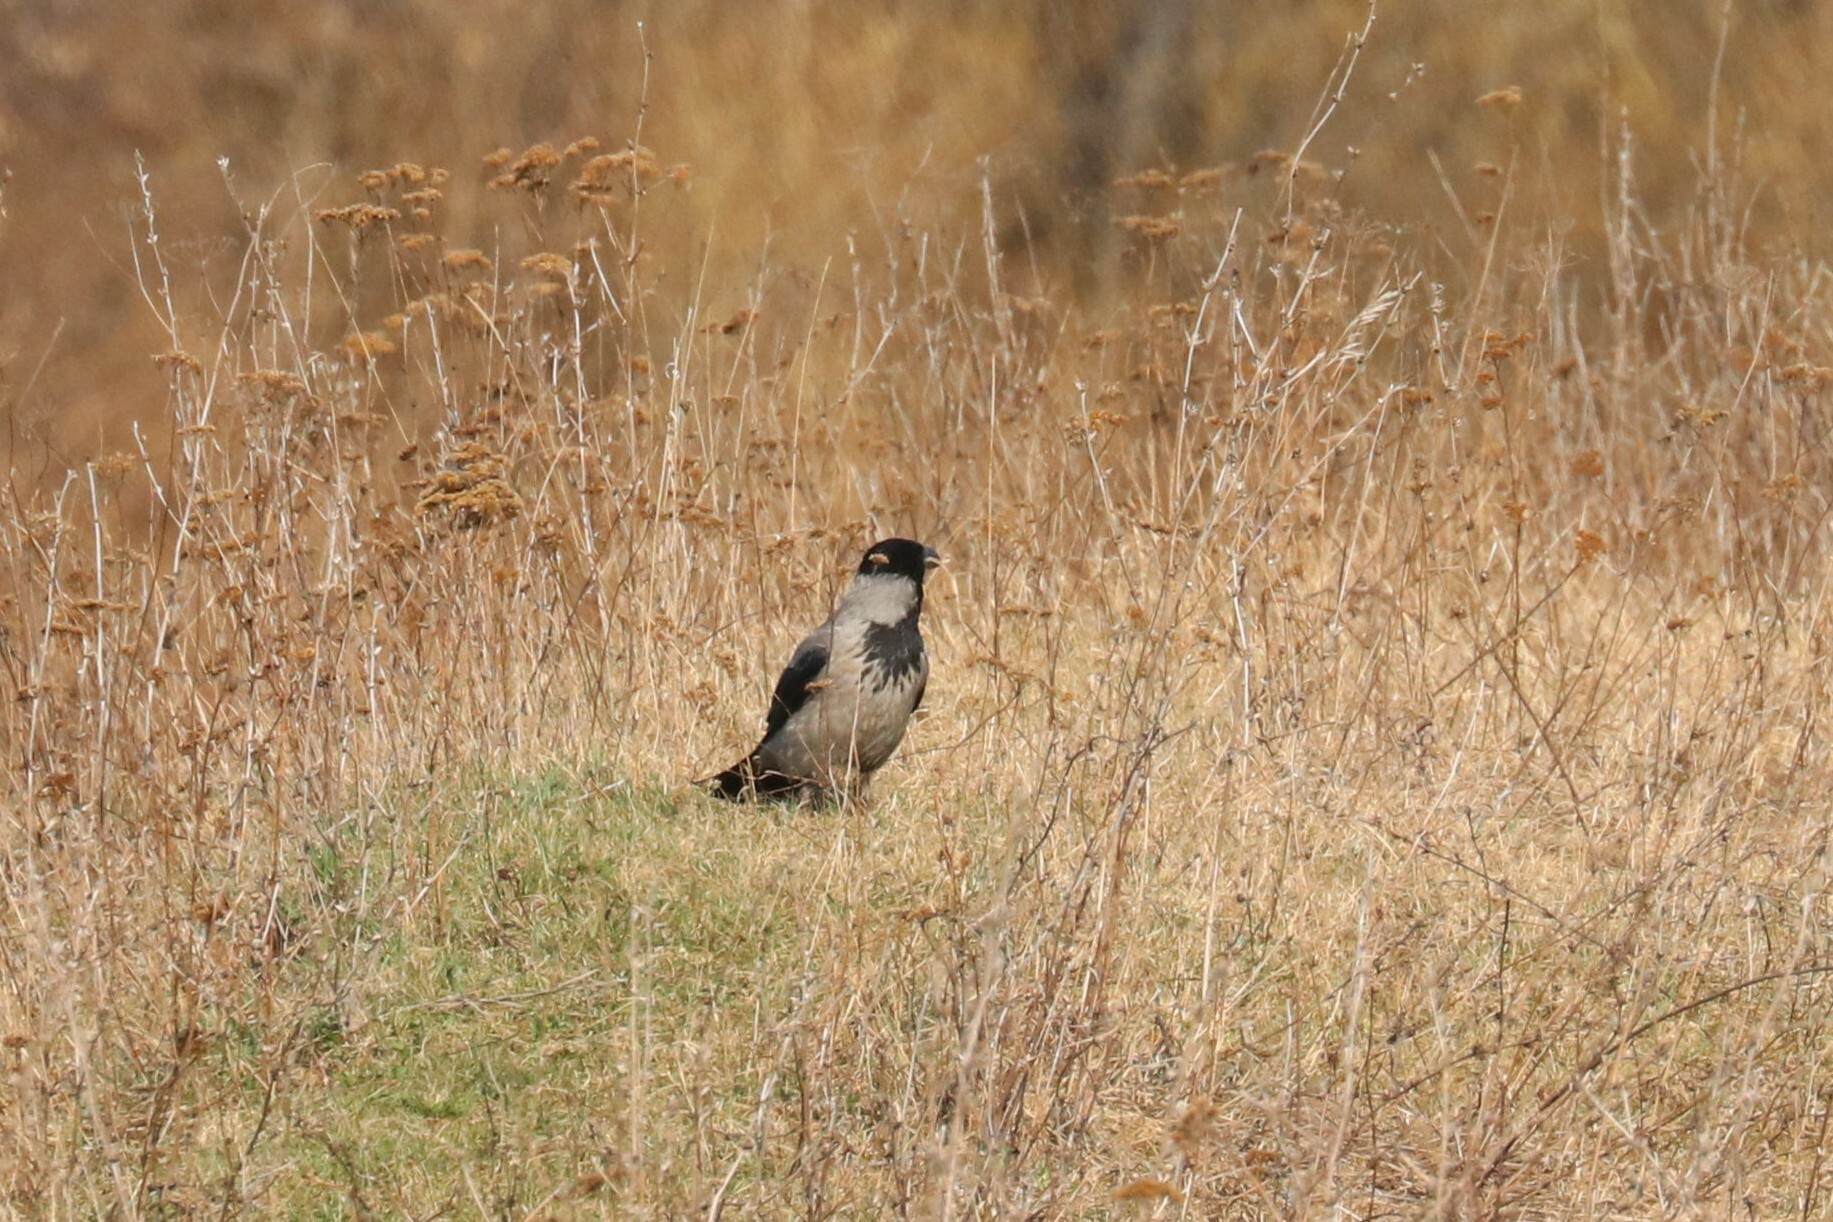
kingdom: Animalia
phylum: Chordata
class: Aves
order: Passeriformes
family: Corvidae
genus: Corvus
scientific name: Corvus cornix
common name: Hooded crow
